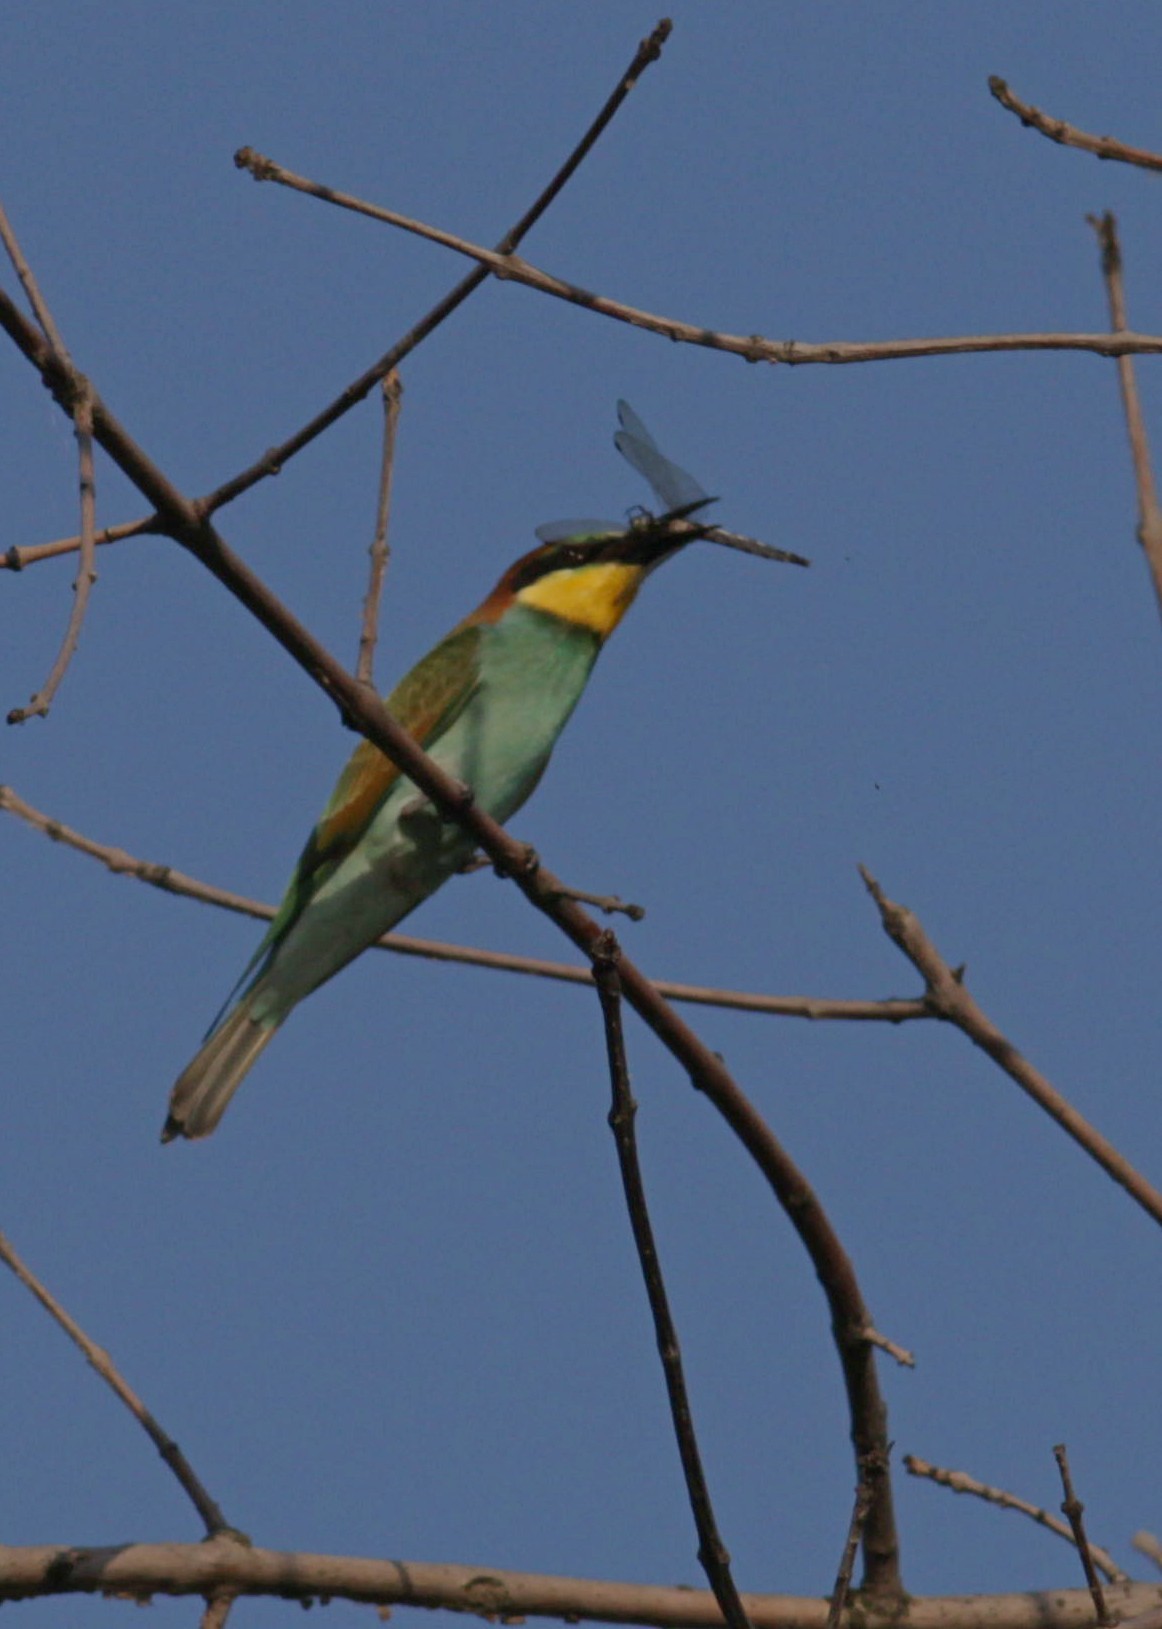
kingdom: Animalia
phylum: Chordata
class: Aves
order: Coraciiformes
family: Meropidae
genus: Merops
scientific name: Merops apiaster
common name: European bee-eater
